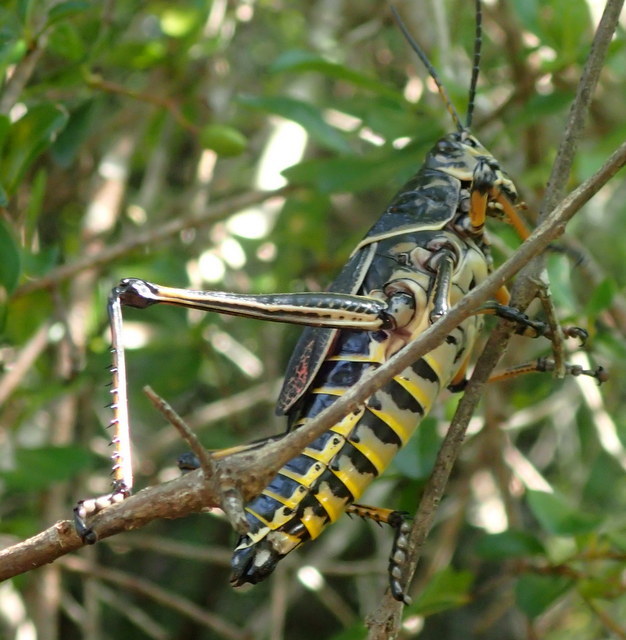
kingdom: Animalia
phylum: Arthropoda
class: Insecta
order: Orthoptera
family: Romaleidae
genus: Romalea
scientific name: Romalea microptera
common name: Eastern lubber grasshopper
